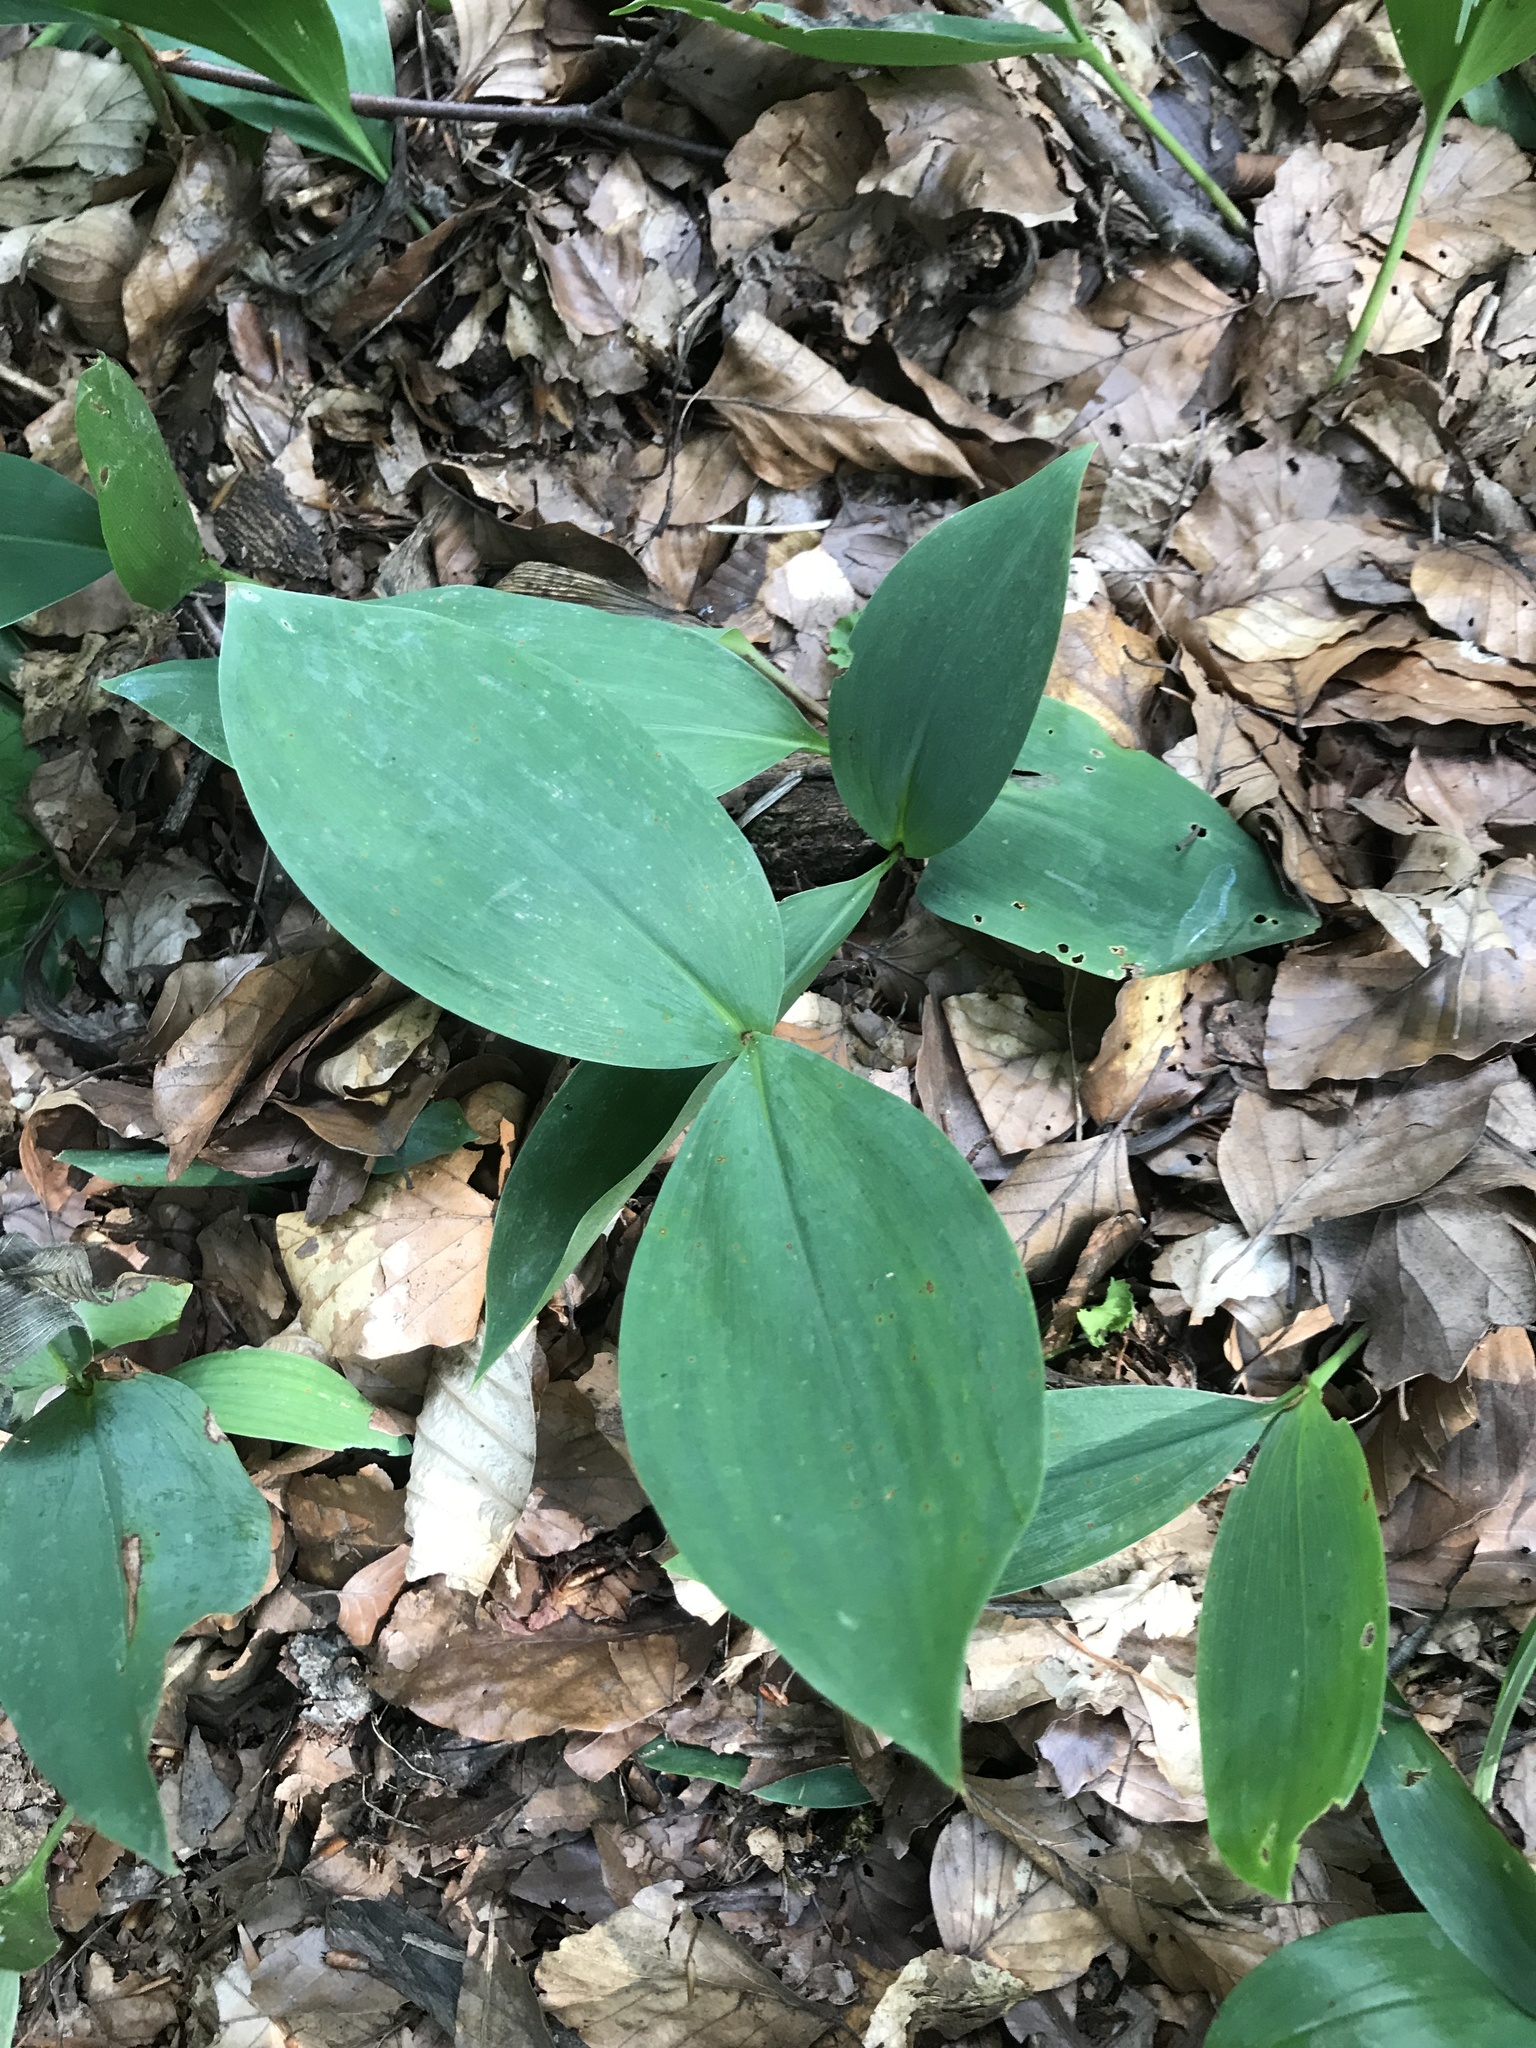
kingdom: Plantae
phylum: Tracheophyta
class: Liliopsida
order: Asparagales
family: Asparagaceae
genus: Convallaria
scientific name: Convallaria majalis
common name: Lily-of-the-valley
